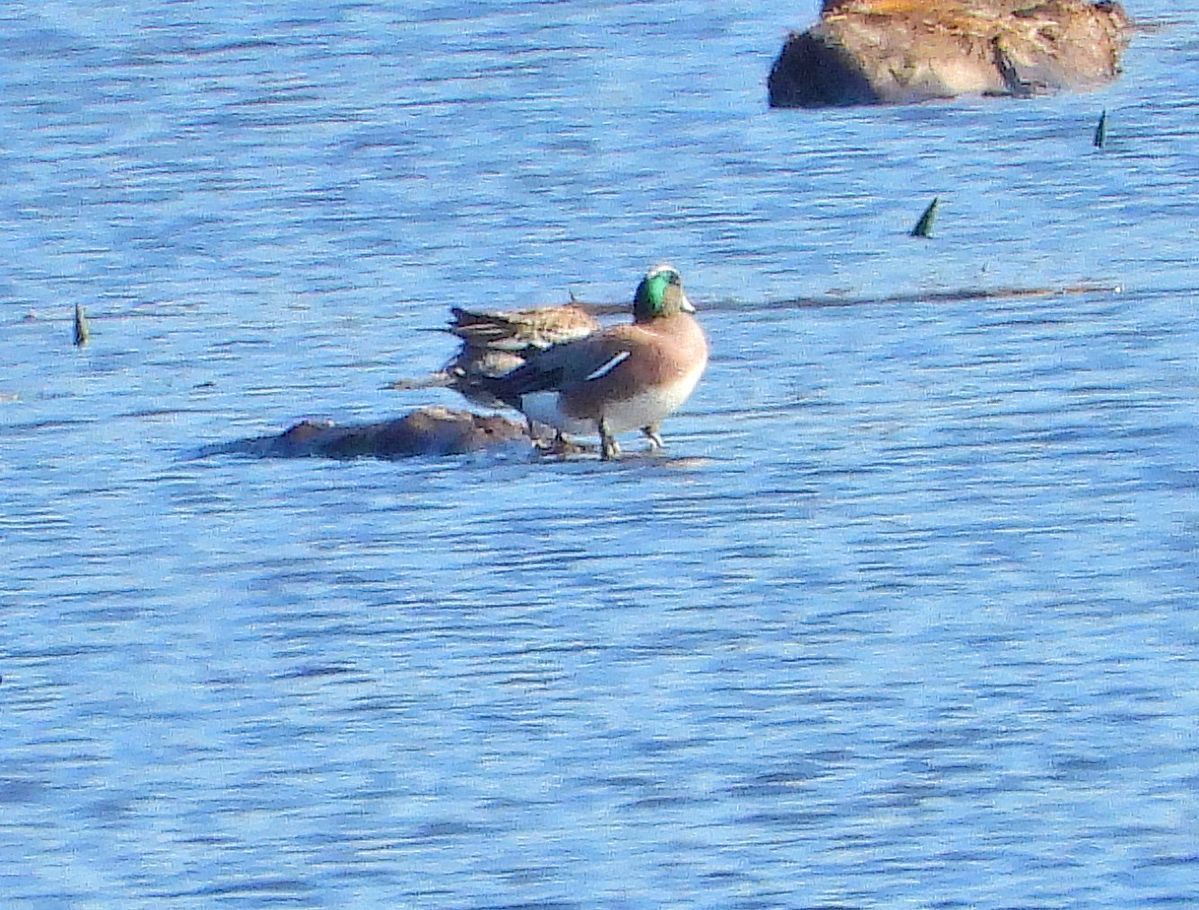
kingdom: Animalia
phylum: Chordata
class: Aves
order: Anseriformes
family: Anatidae
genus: Mareca
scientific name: Mareca americana
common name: American wigeon
